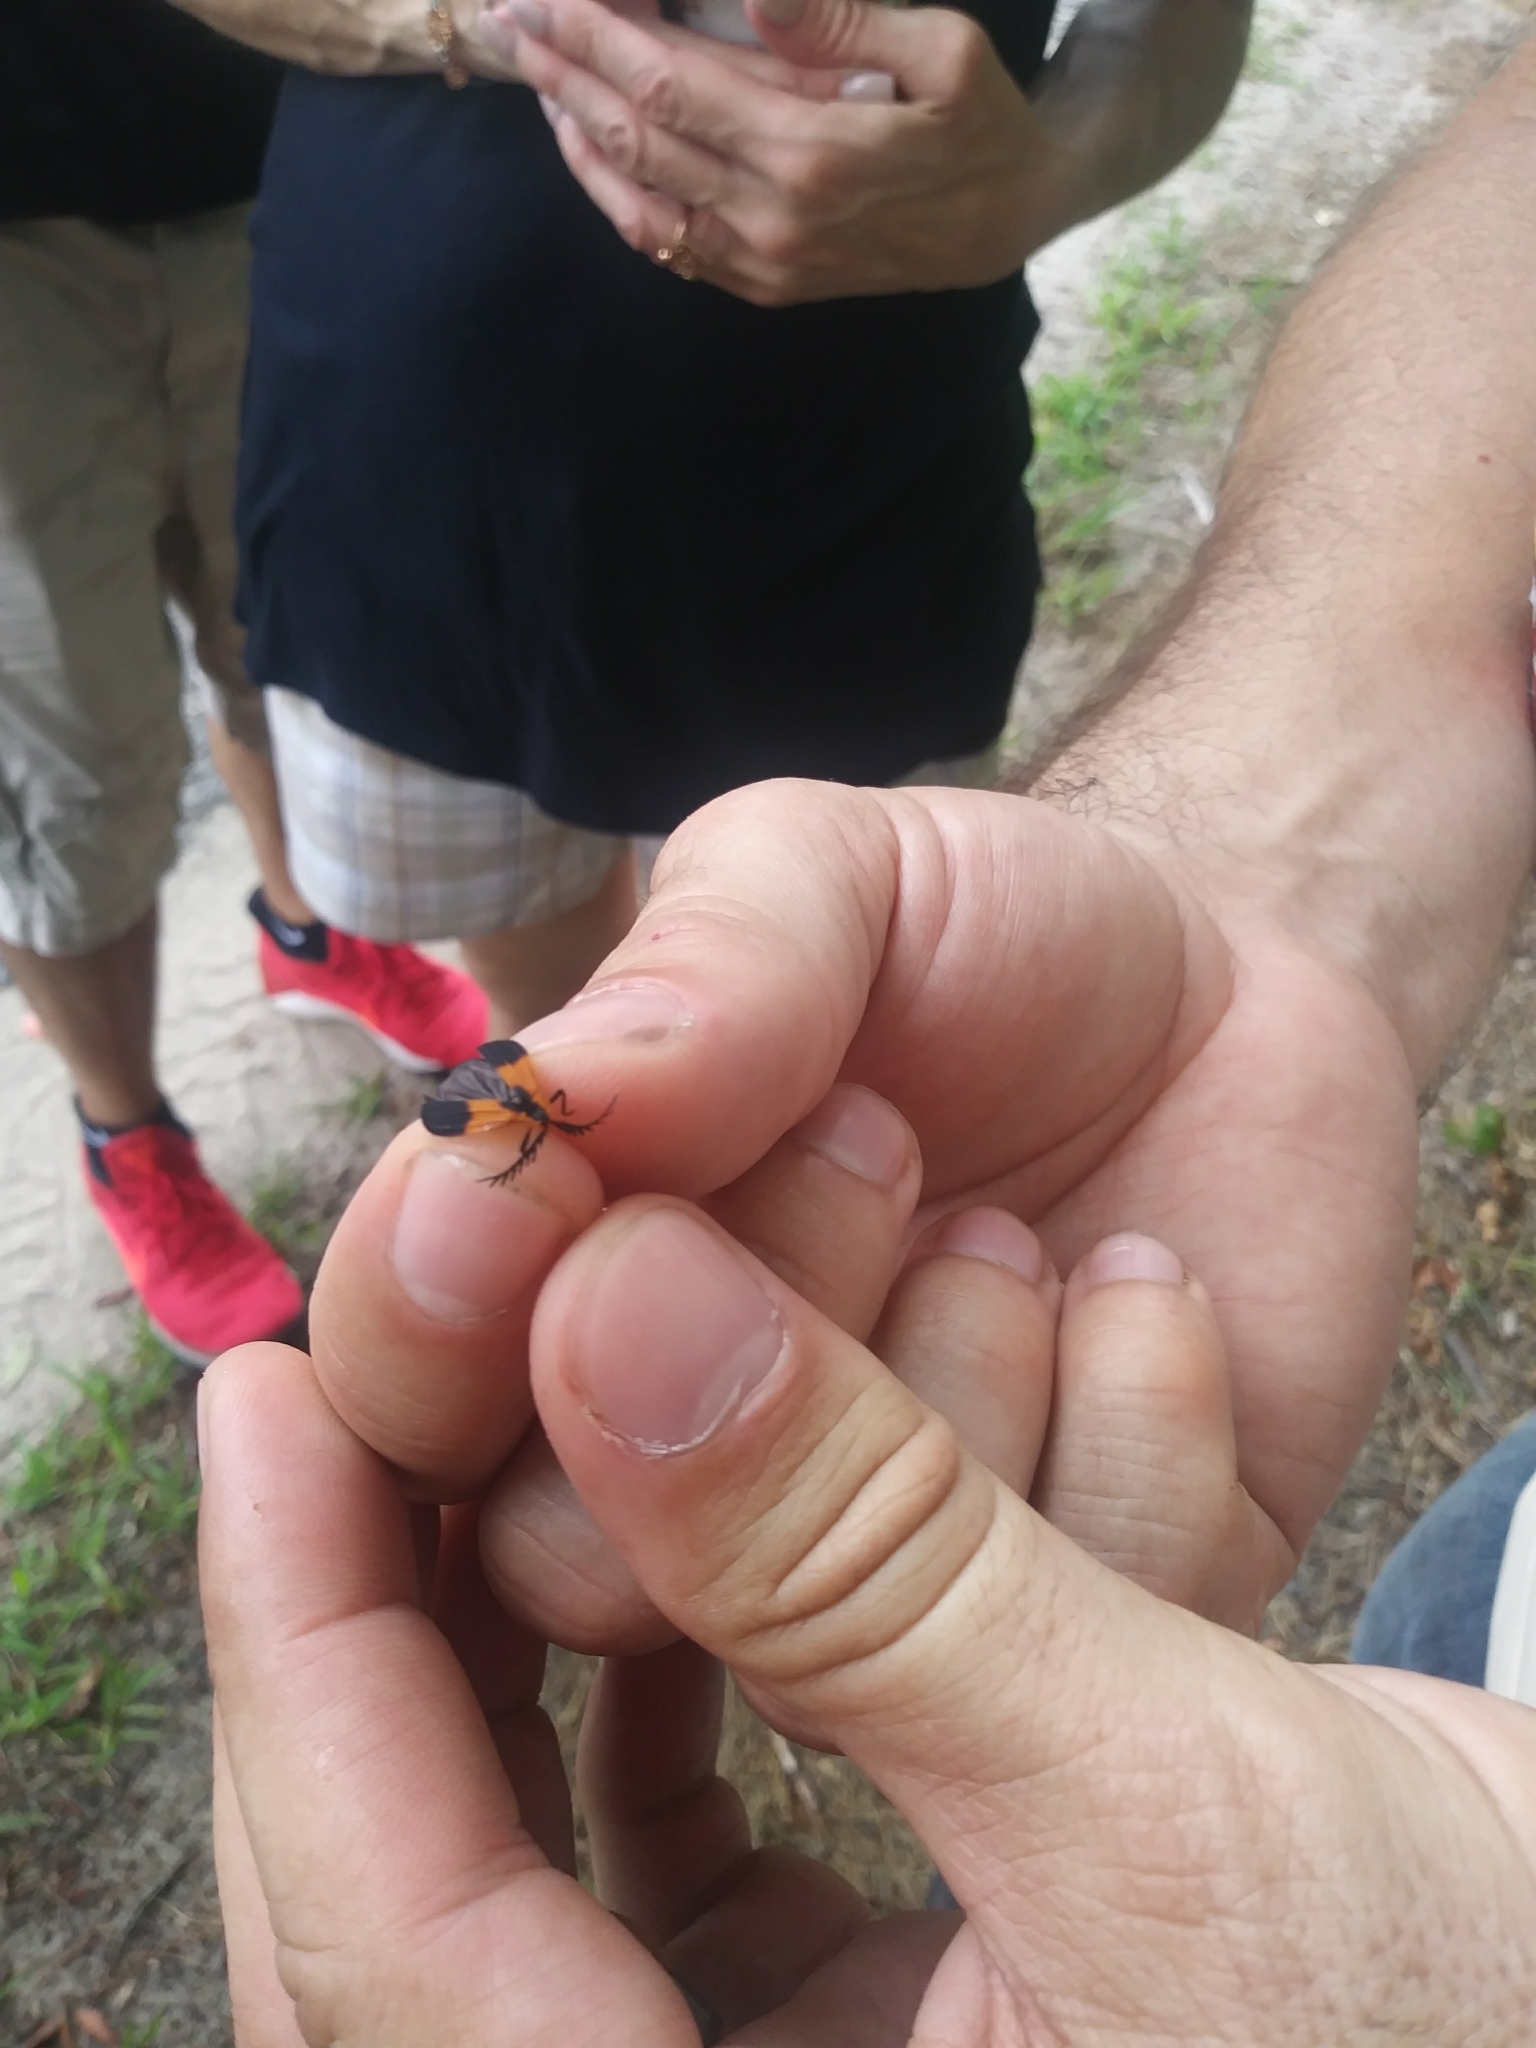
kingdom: Animalia
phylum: Arthropoda
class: Insecta
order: Coleoptera
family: Lycidae
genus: Caenia
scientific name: Caenia dimidiata
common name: Terminal net-winged beetle
